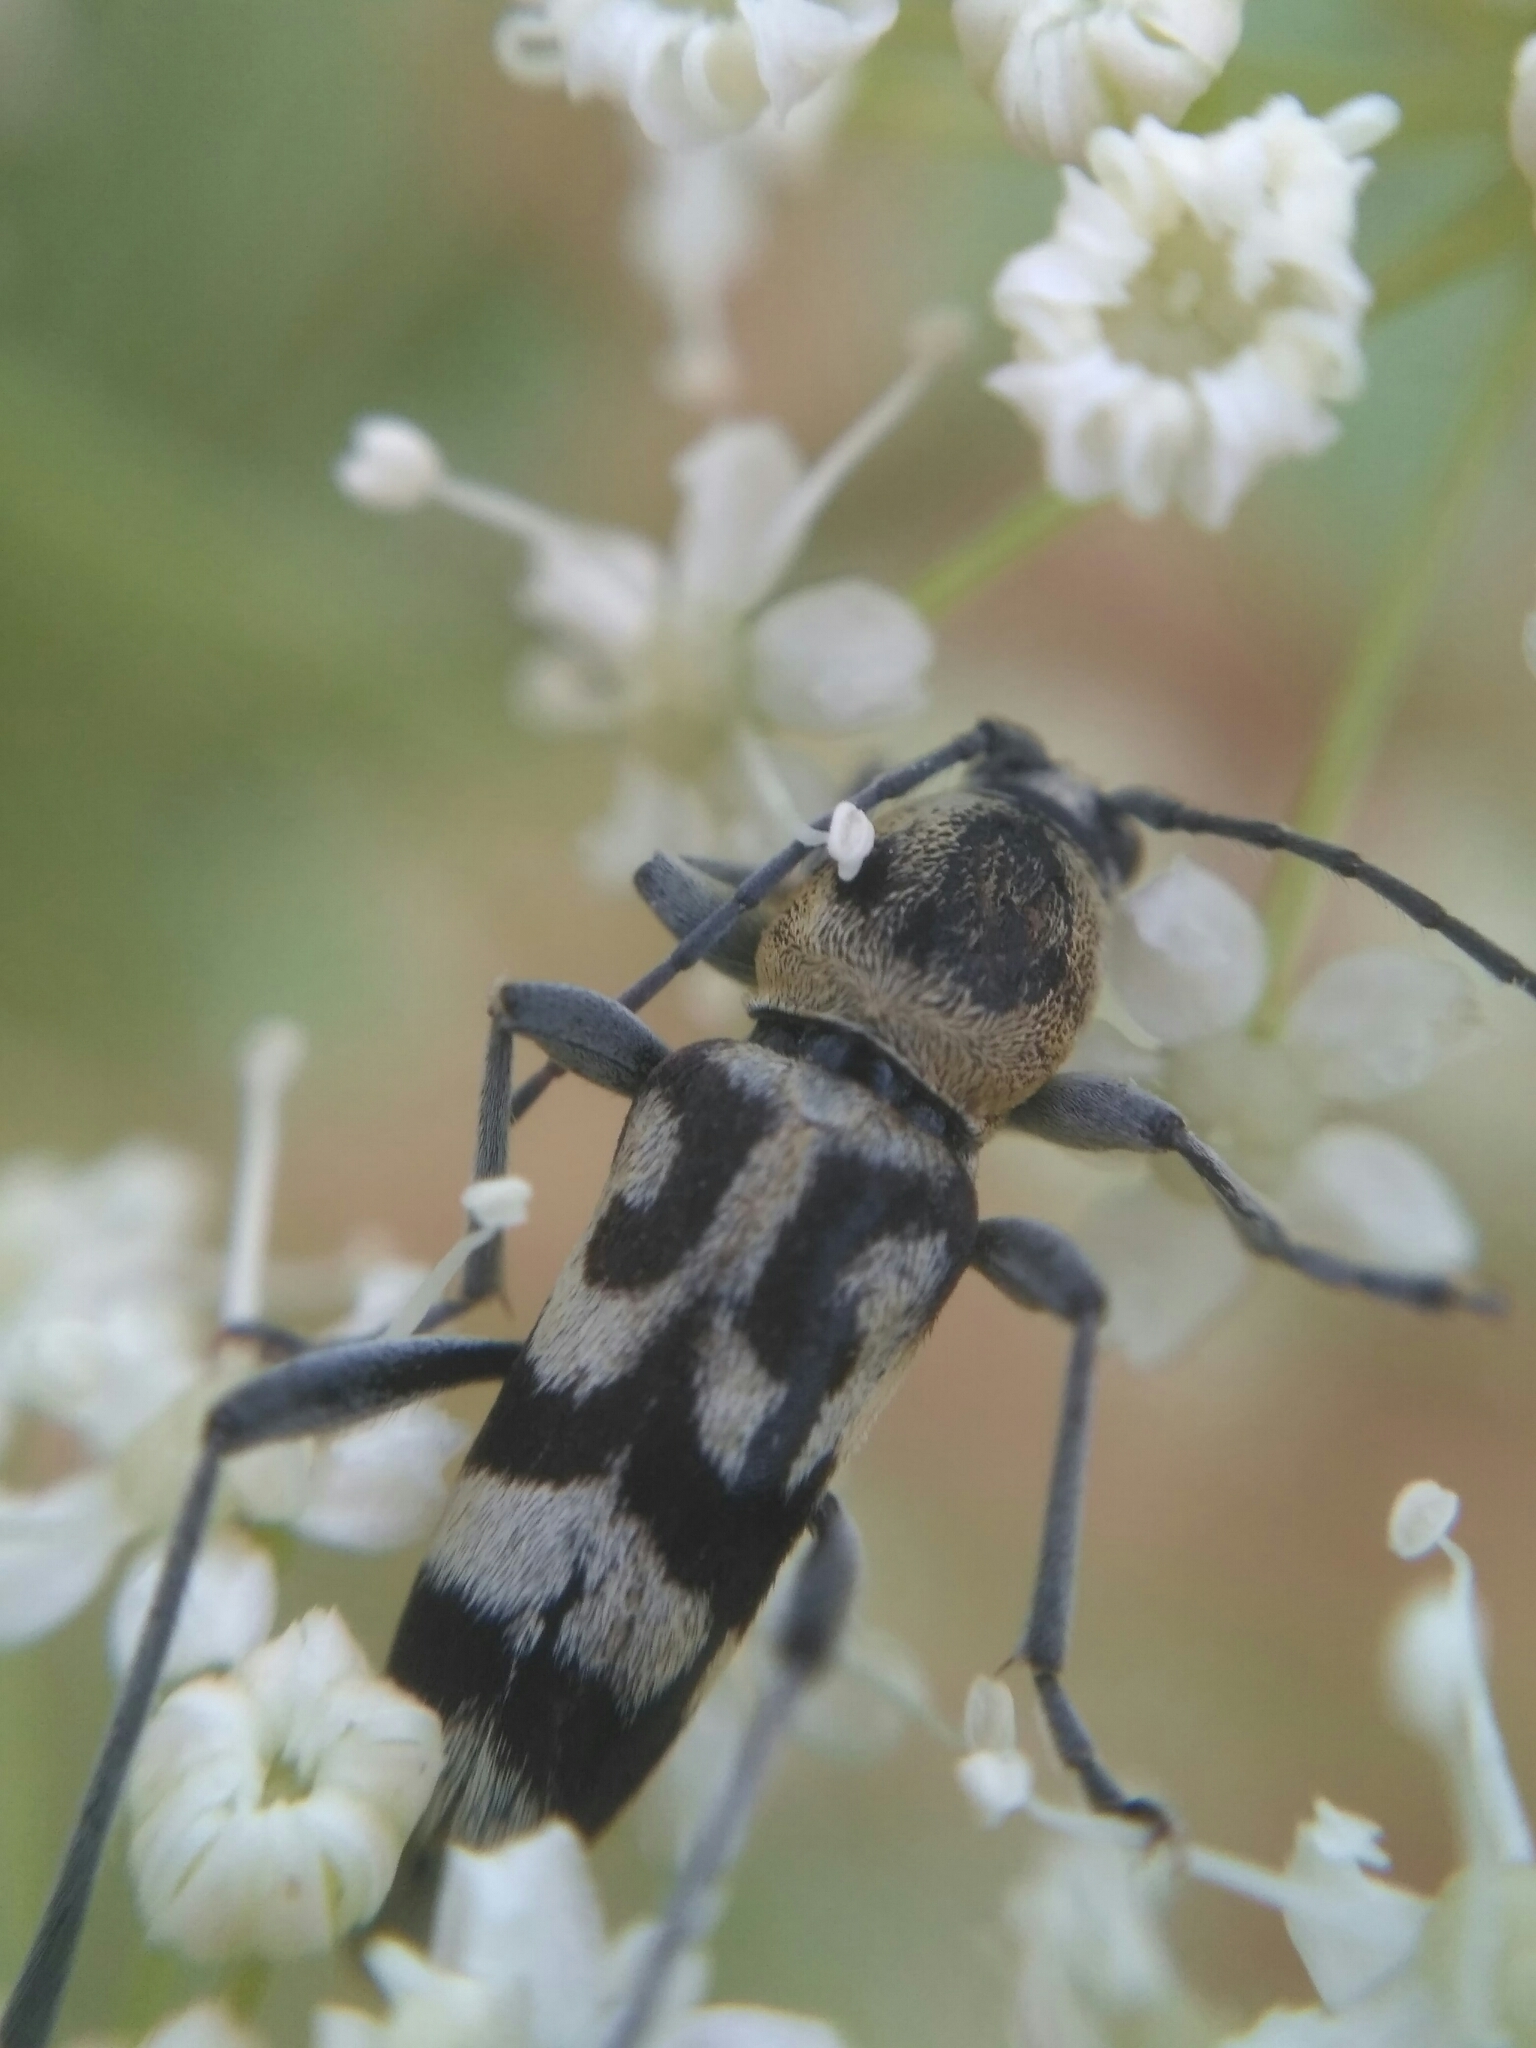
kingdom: Animalia
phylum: Arthropoda
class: Insecta
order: Coleoptera
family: Cerambycidae
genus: Chlorophorus
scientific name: Chlorophorus varius
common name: Grape wood borer
